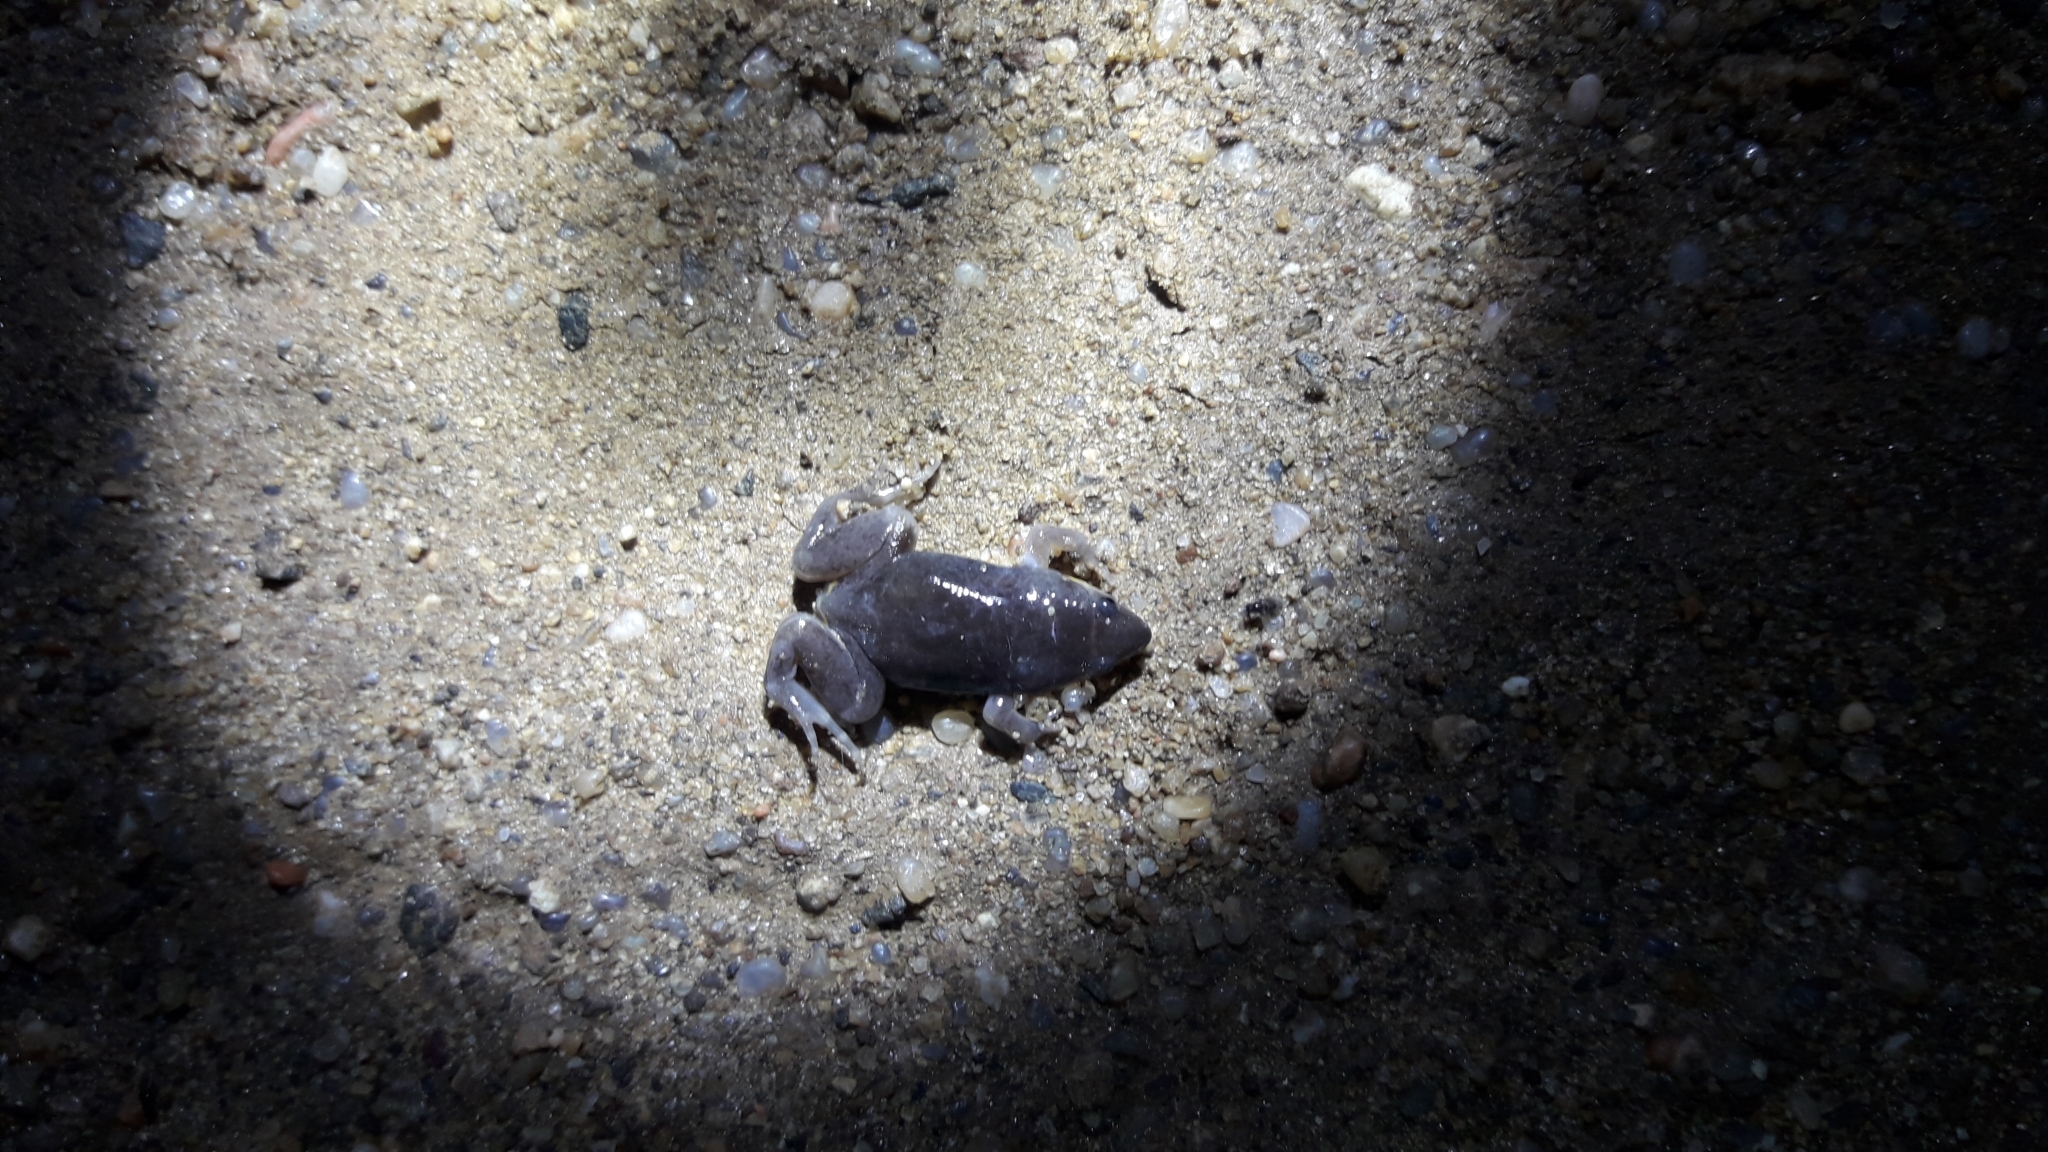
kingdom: Animalia
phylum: Chordata
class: Amphibia
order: Anura
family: Microhylidae
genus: Elachistocleis
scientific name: Elachistocleis bicolor
